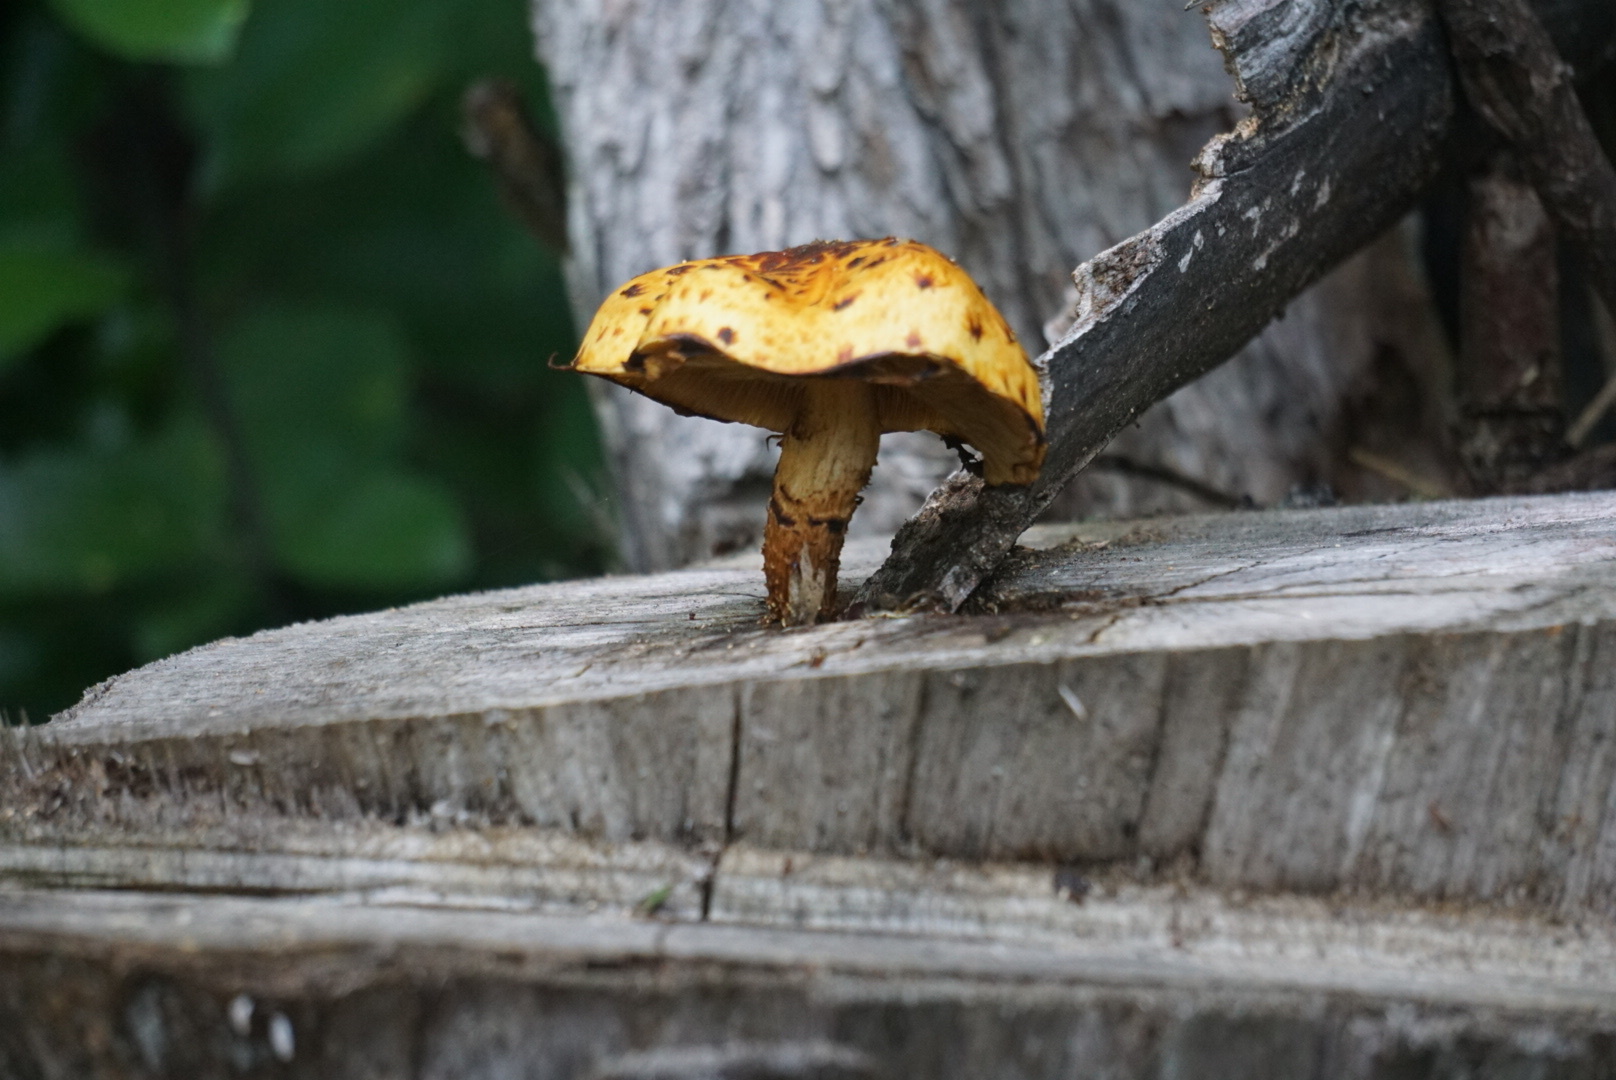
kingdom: Fungi
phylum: Basidiomycota
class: Agaricomycetes
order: Agaricales
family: Strophariaceae
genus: Pholiota
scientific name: Pholiota glutinosa
